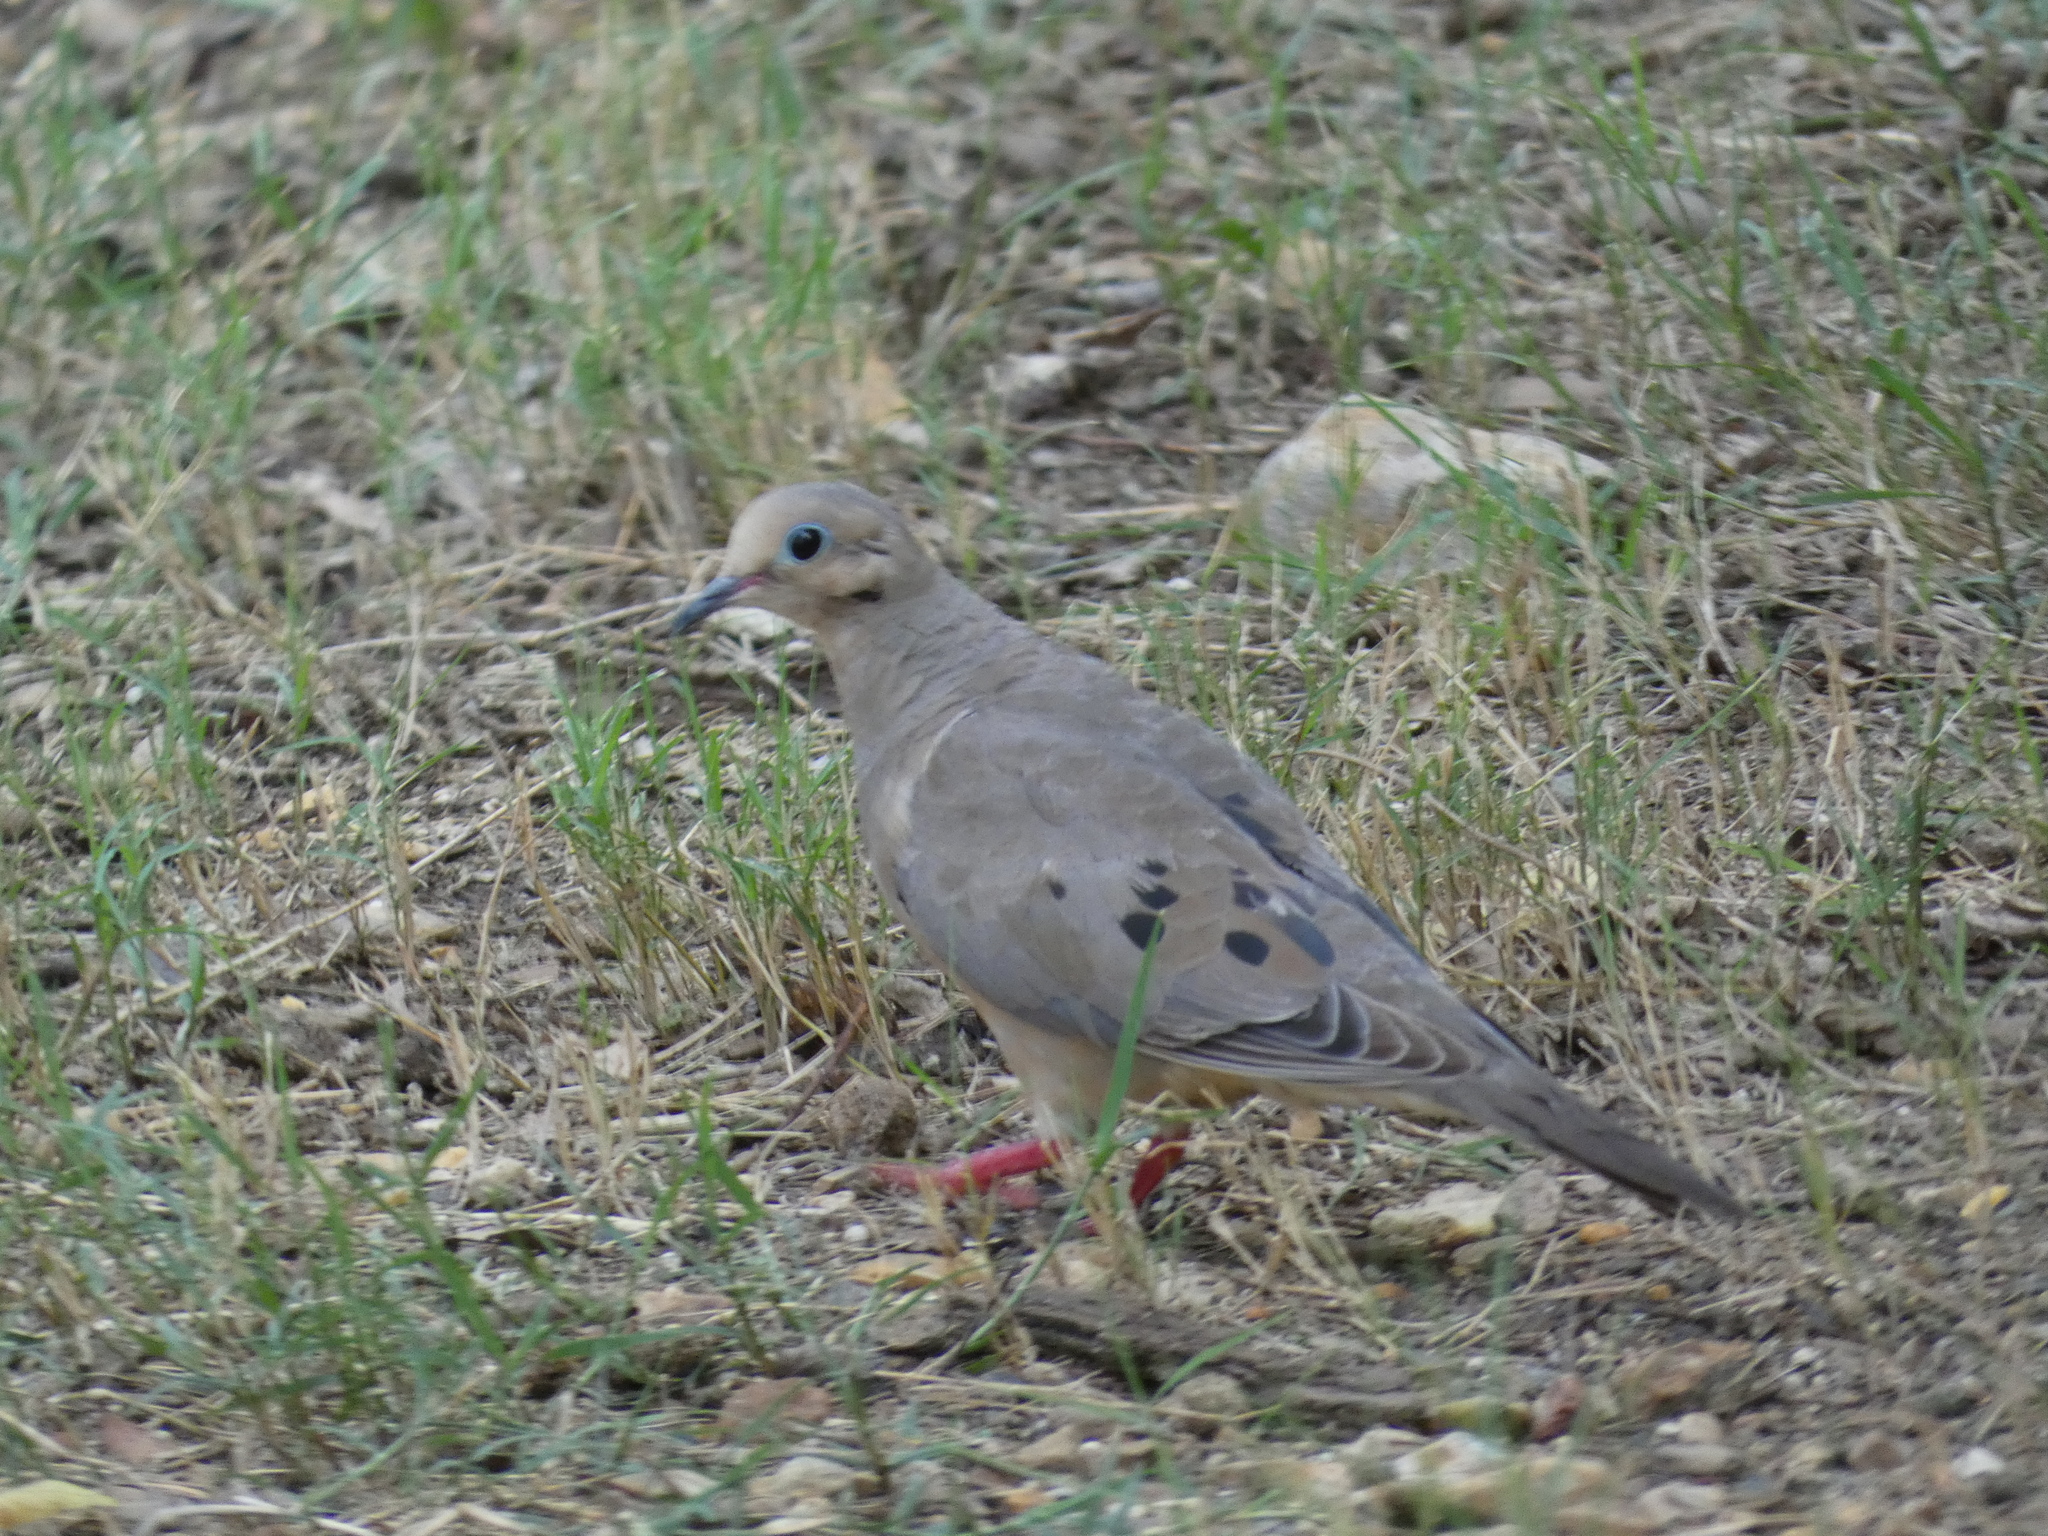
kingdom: Animalia
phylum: Chordata
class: Aves
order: Columbiformes
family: Columbidae
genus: Zenaida
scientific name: Zenaida macroura
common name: Mourning dove
